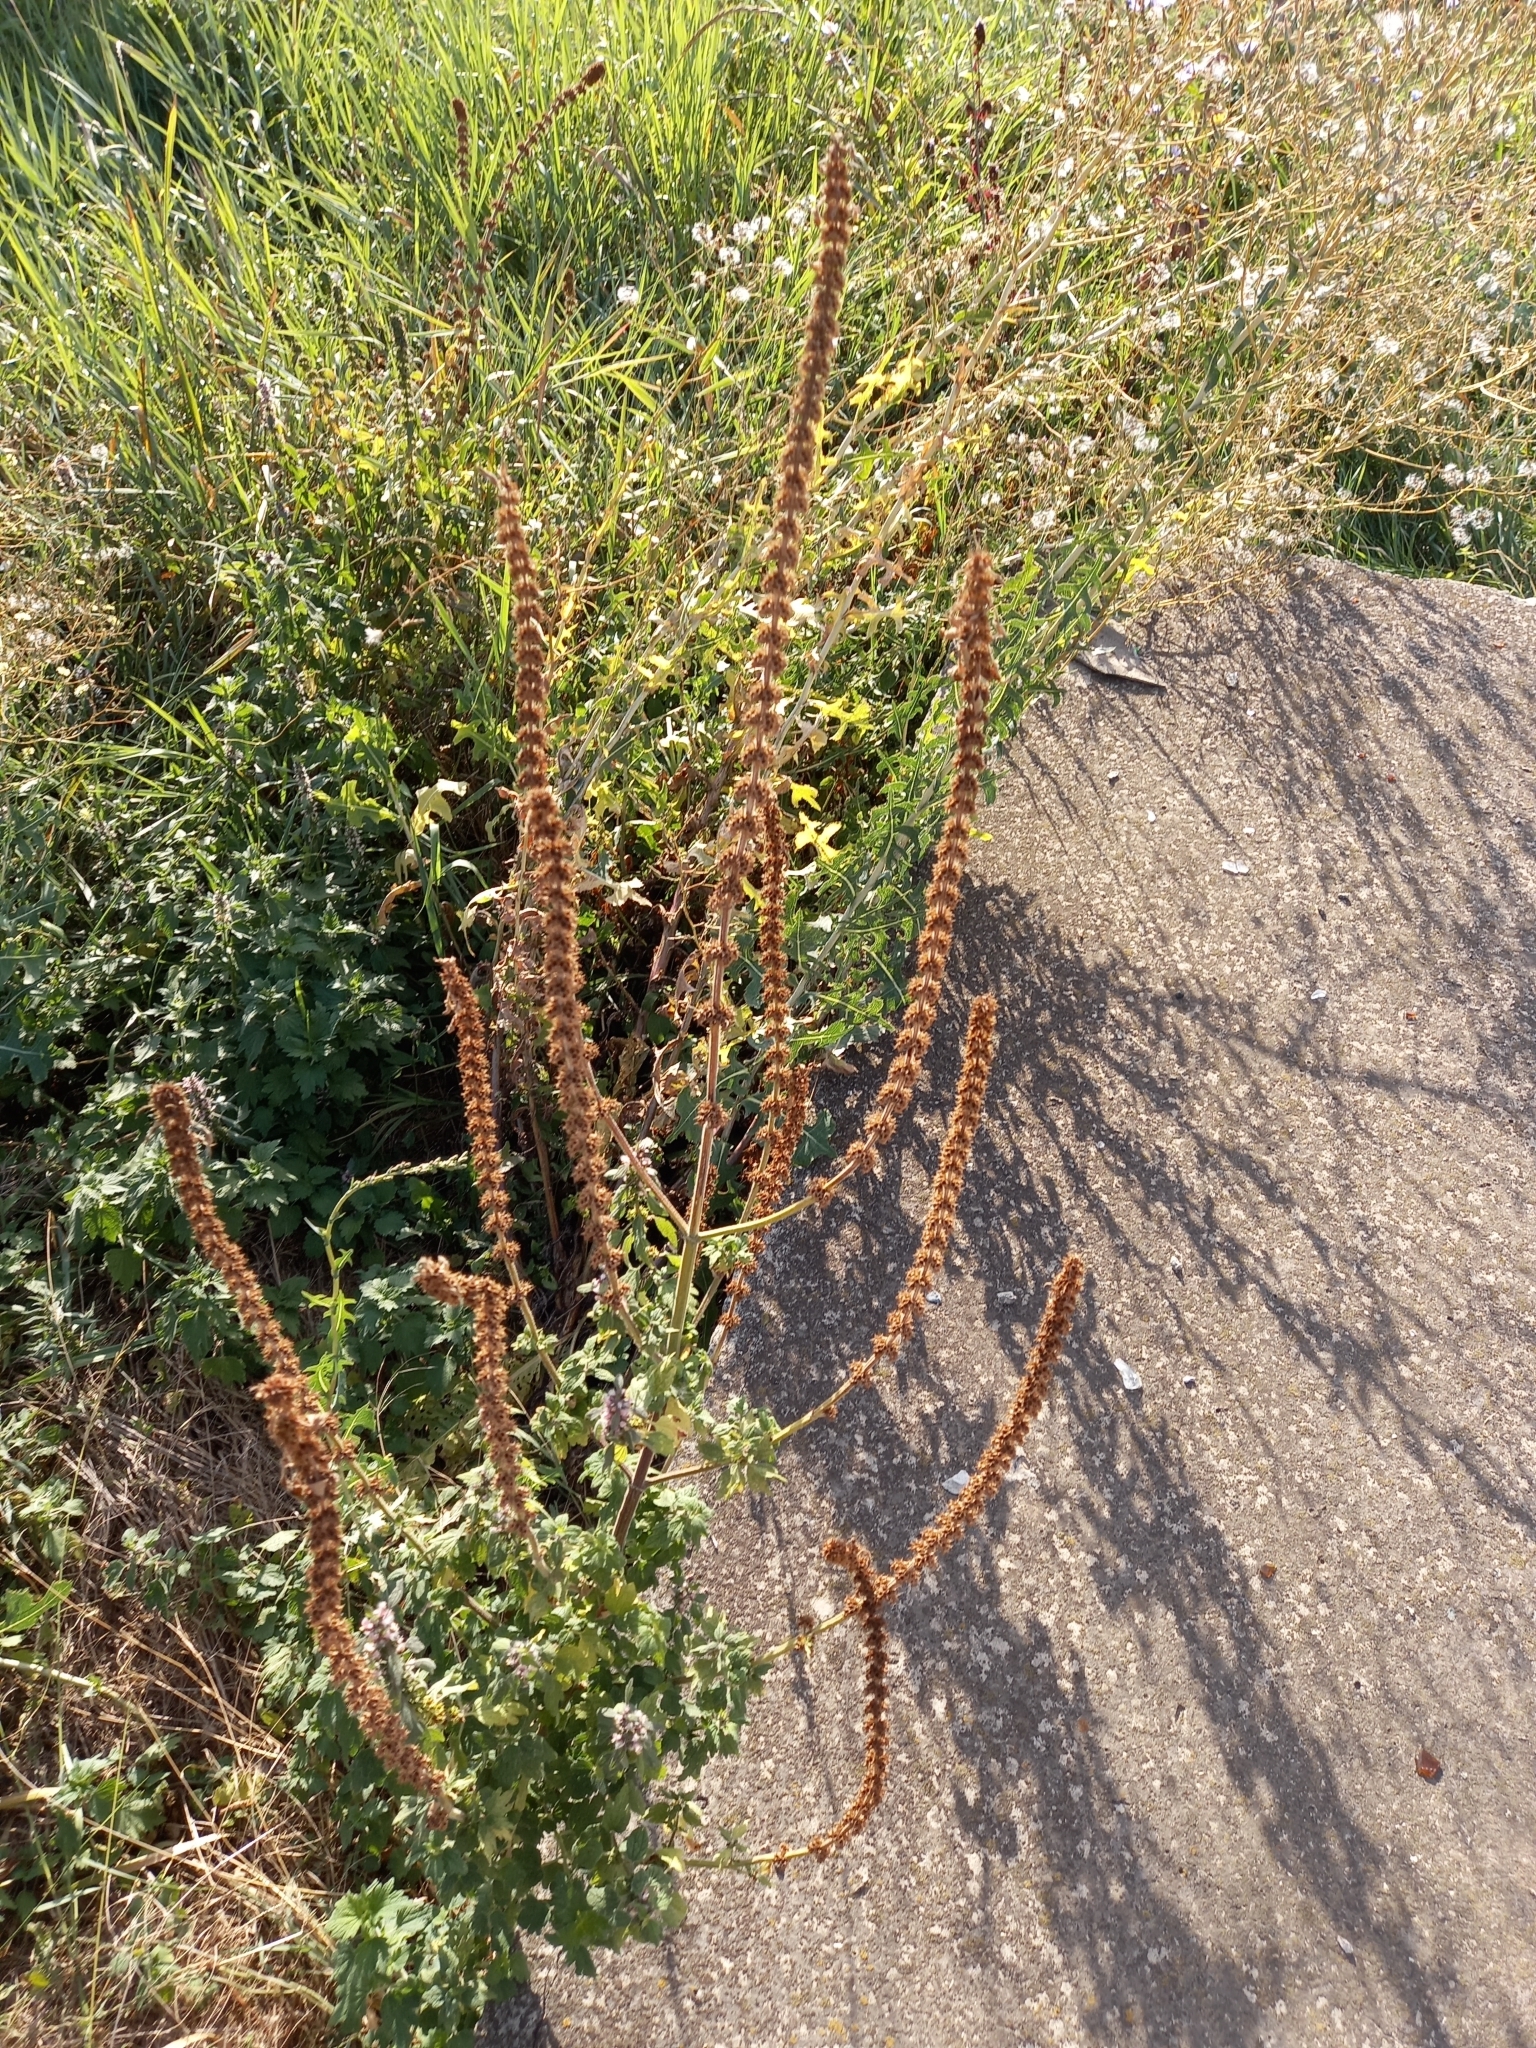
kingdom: Plantae
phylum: Tracheophyta
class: Magnoliopsida
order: Lamiales
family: Lamiaceae
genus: Leonurus
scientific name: Leonurus quinquelobatus
